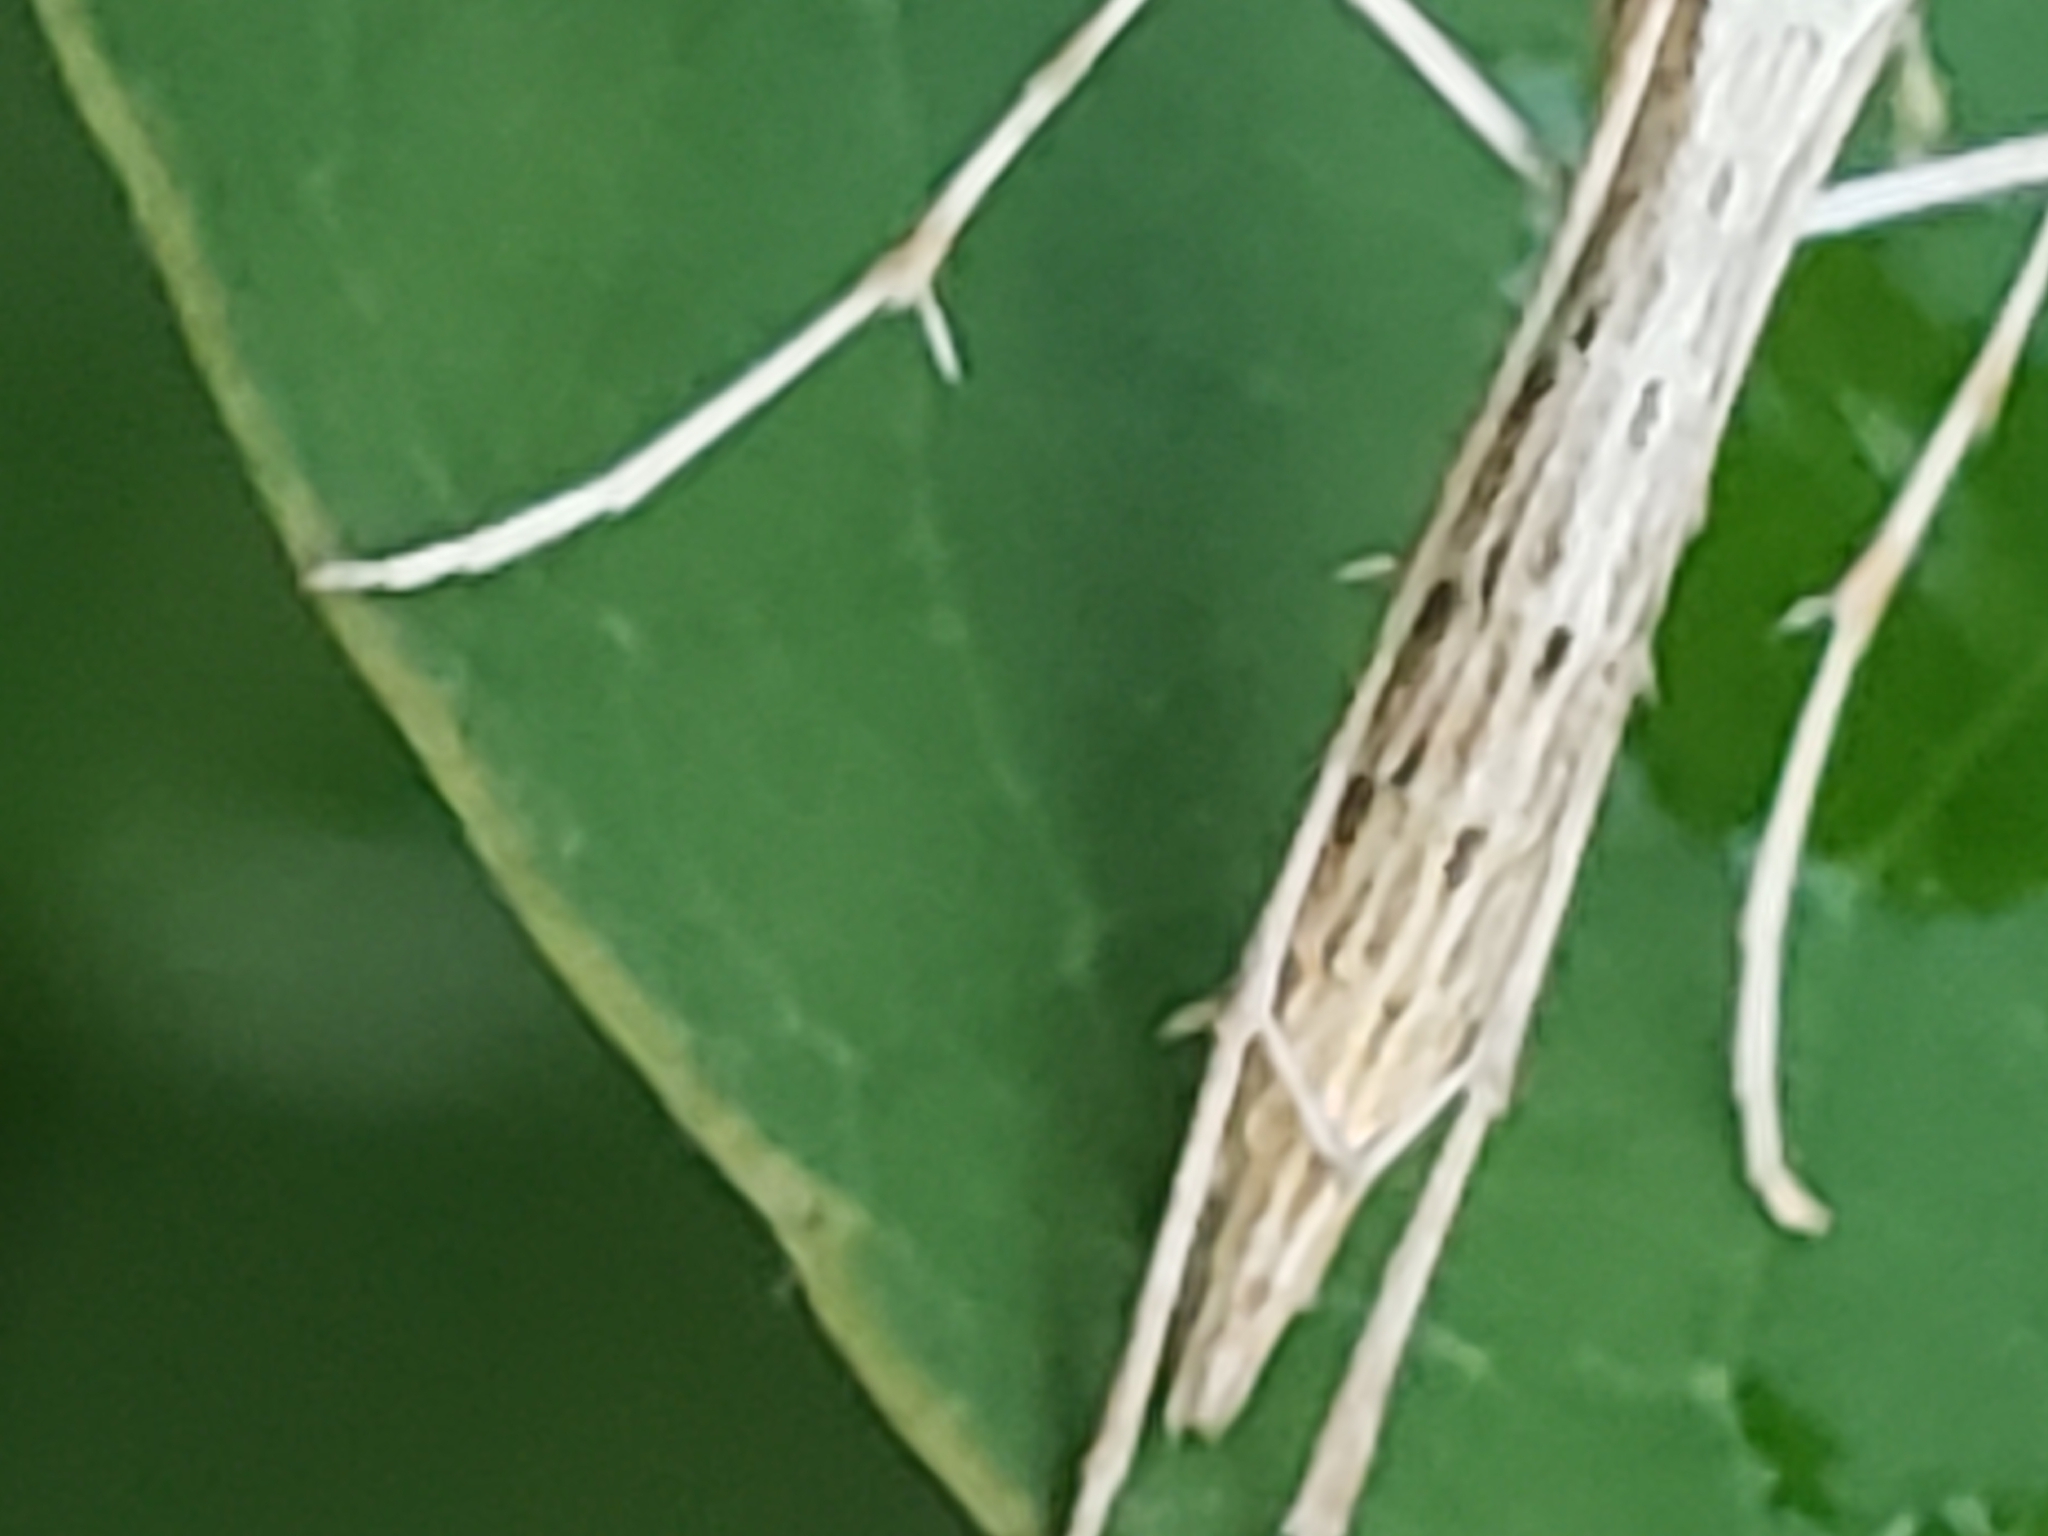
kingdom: Animalia
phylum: Arthropoda
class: Insecta
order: Lepidoptera
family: Pterophoridae
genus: Emmelina
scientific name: Emmelina monodactyla
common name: Common plume
